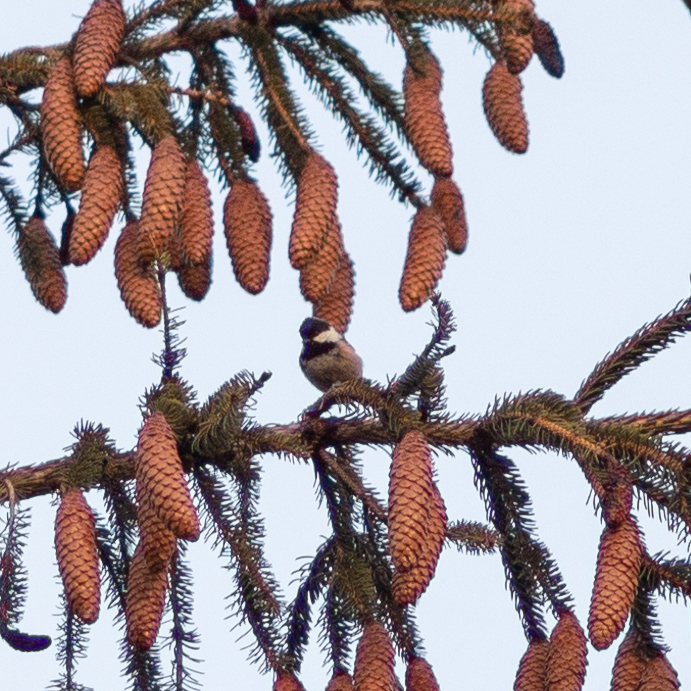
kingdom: Animalia
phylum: Chordata
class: Aves
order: Passeriformes
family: Paridae
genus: Periparus
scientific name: Periparus ater
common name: Coal tit
